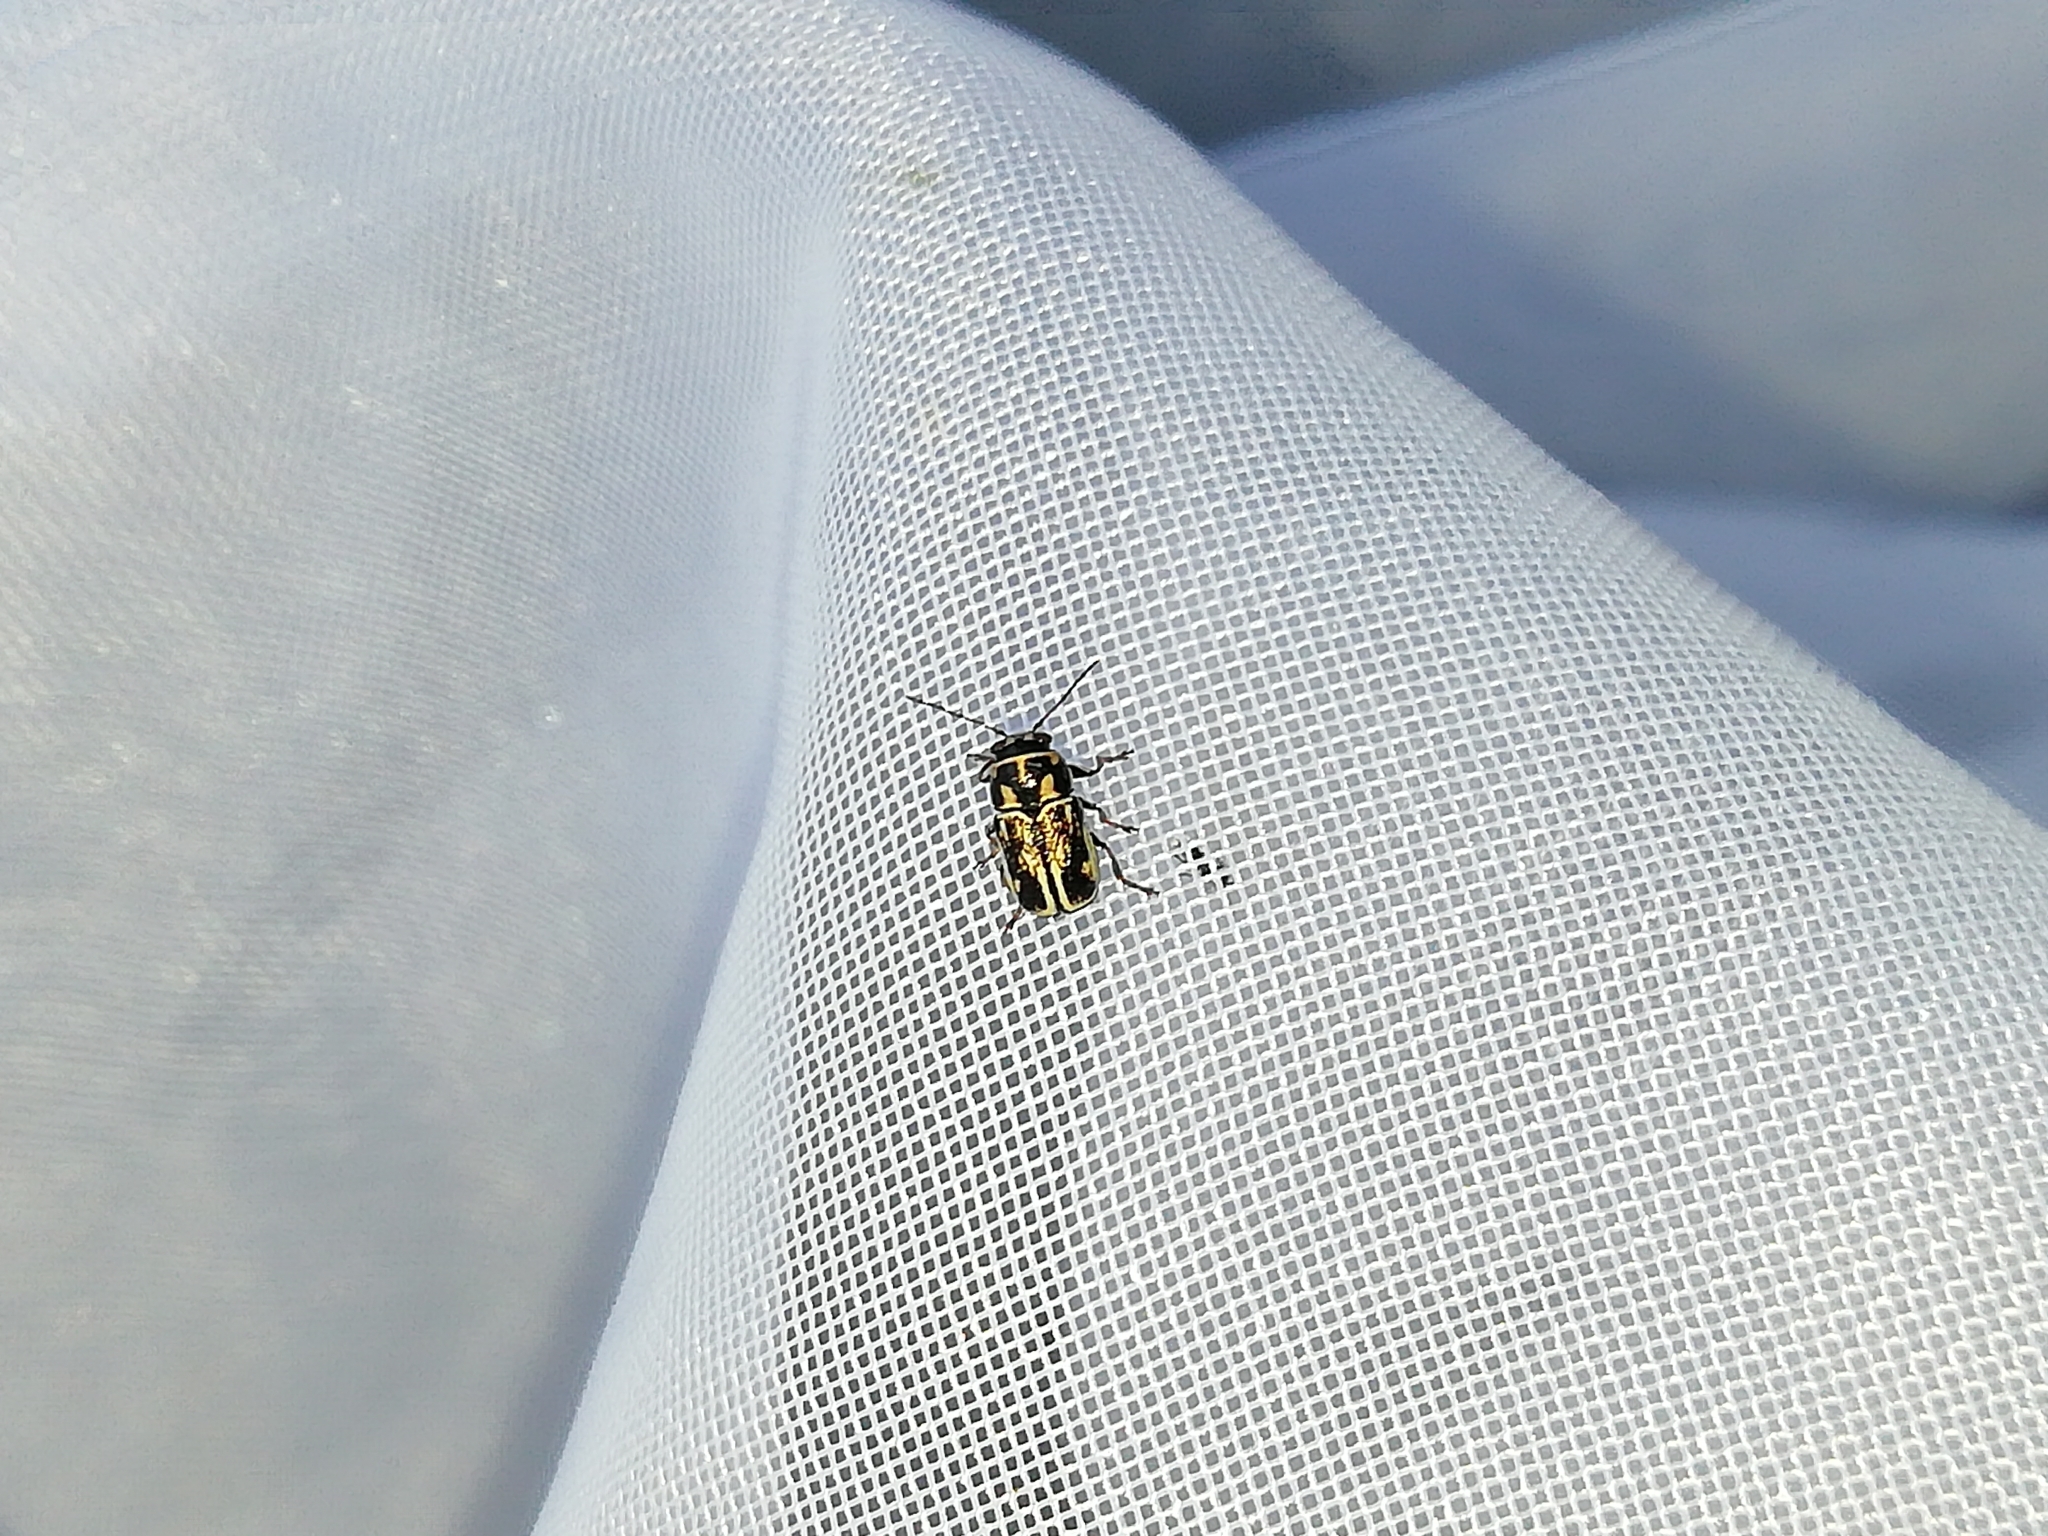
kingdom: Animalia
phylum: Arthropoda
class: Insecta
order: Coleoptera
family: Chrysomelidae
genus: Pachybrachis
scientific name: Pachybrachis fimbriolatus
